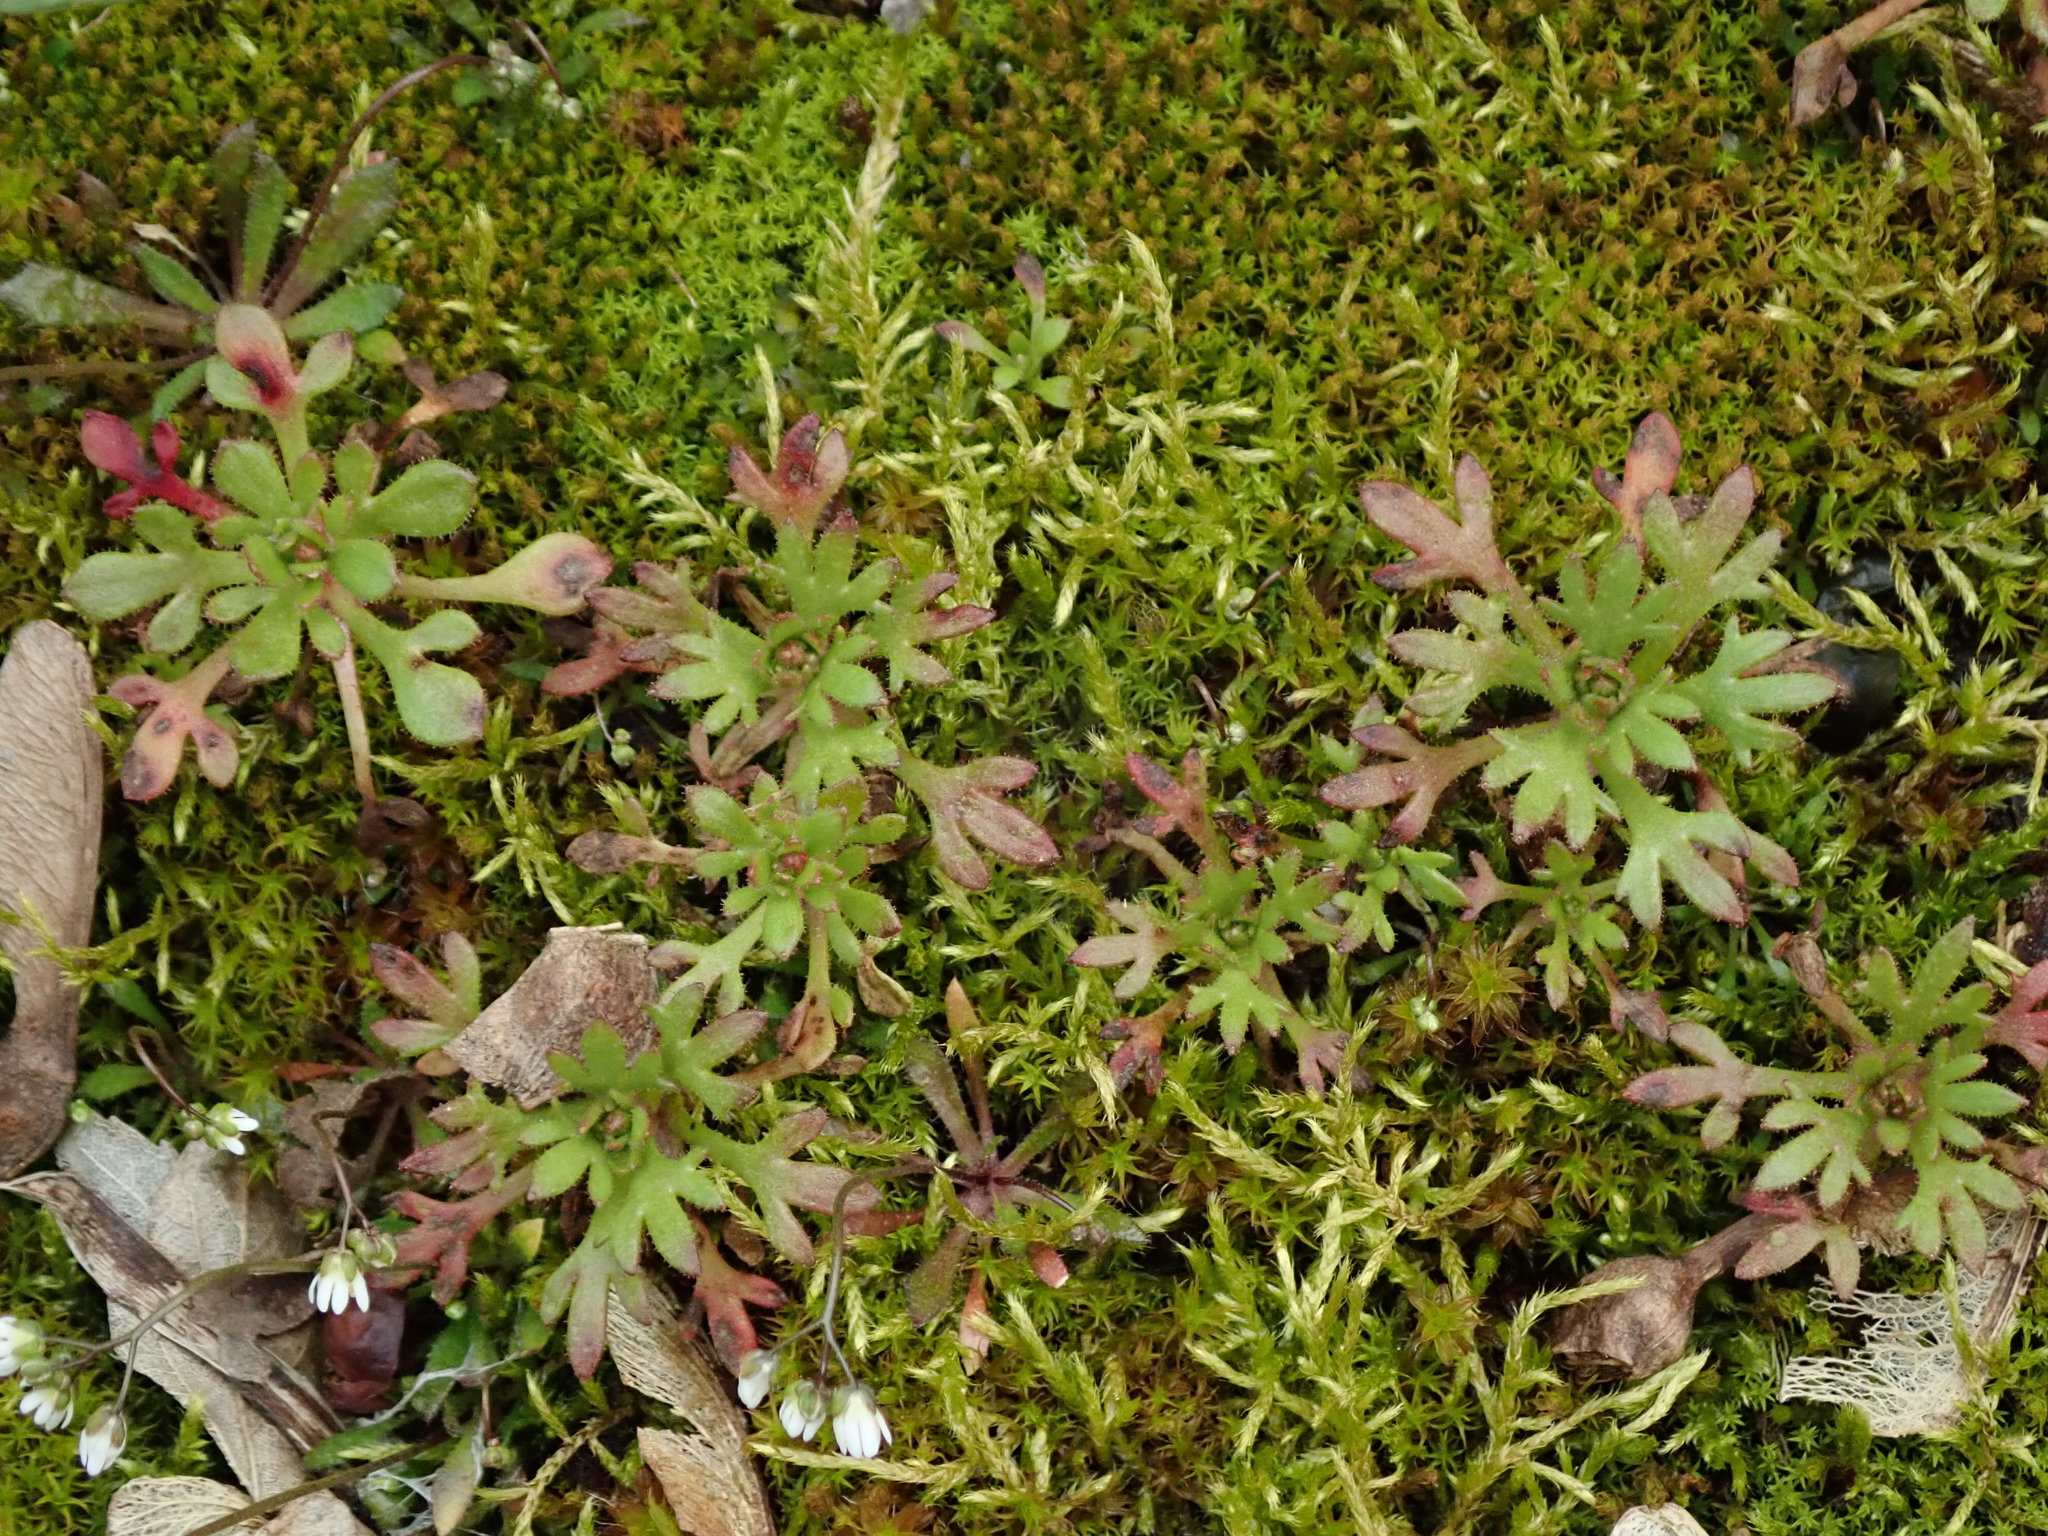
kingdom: Plantae
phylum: Tracheophyta
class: Magnoliopsida
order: Saxifragales
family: Saxifragaceae
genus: Saxifraga
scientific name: Saxifraga tridactylites
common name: Rue-leaved saxifrage
